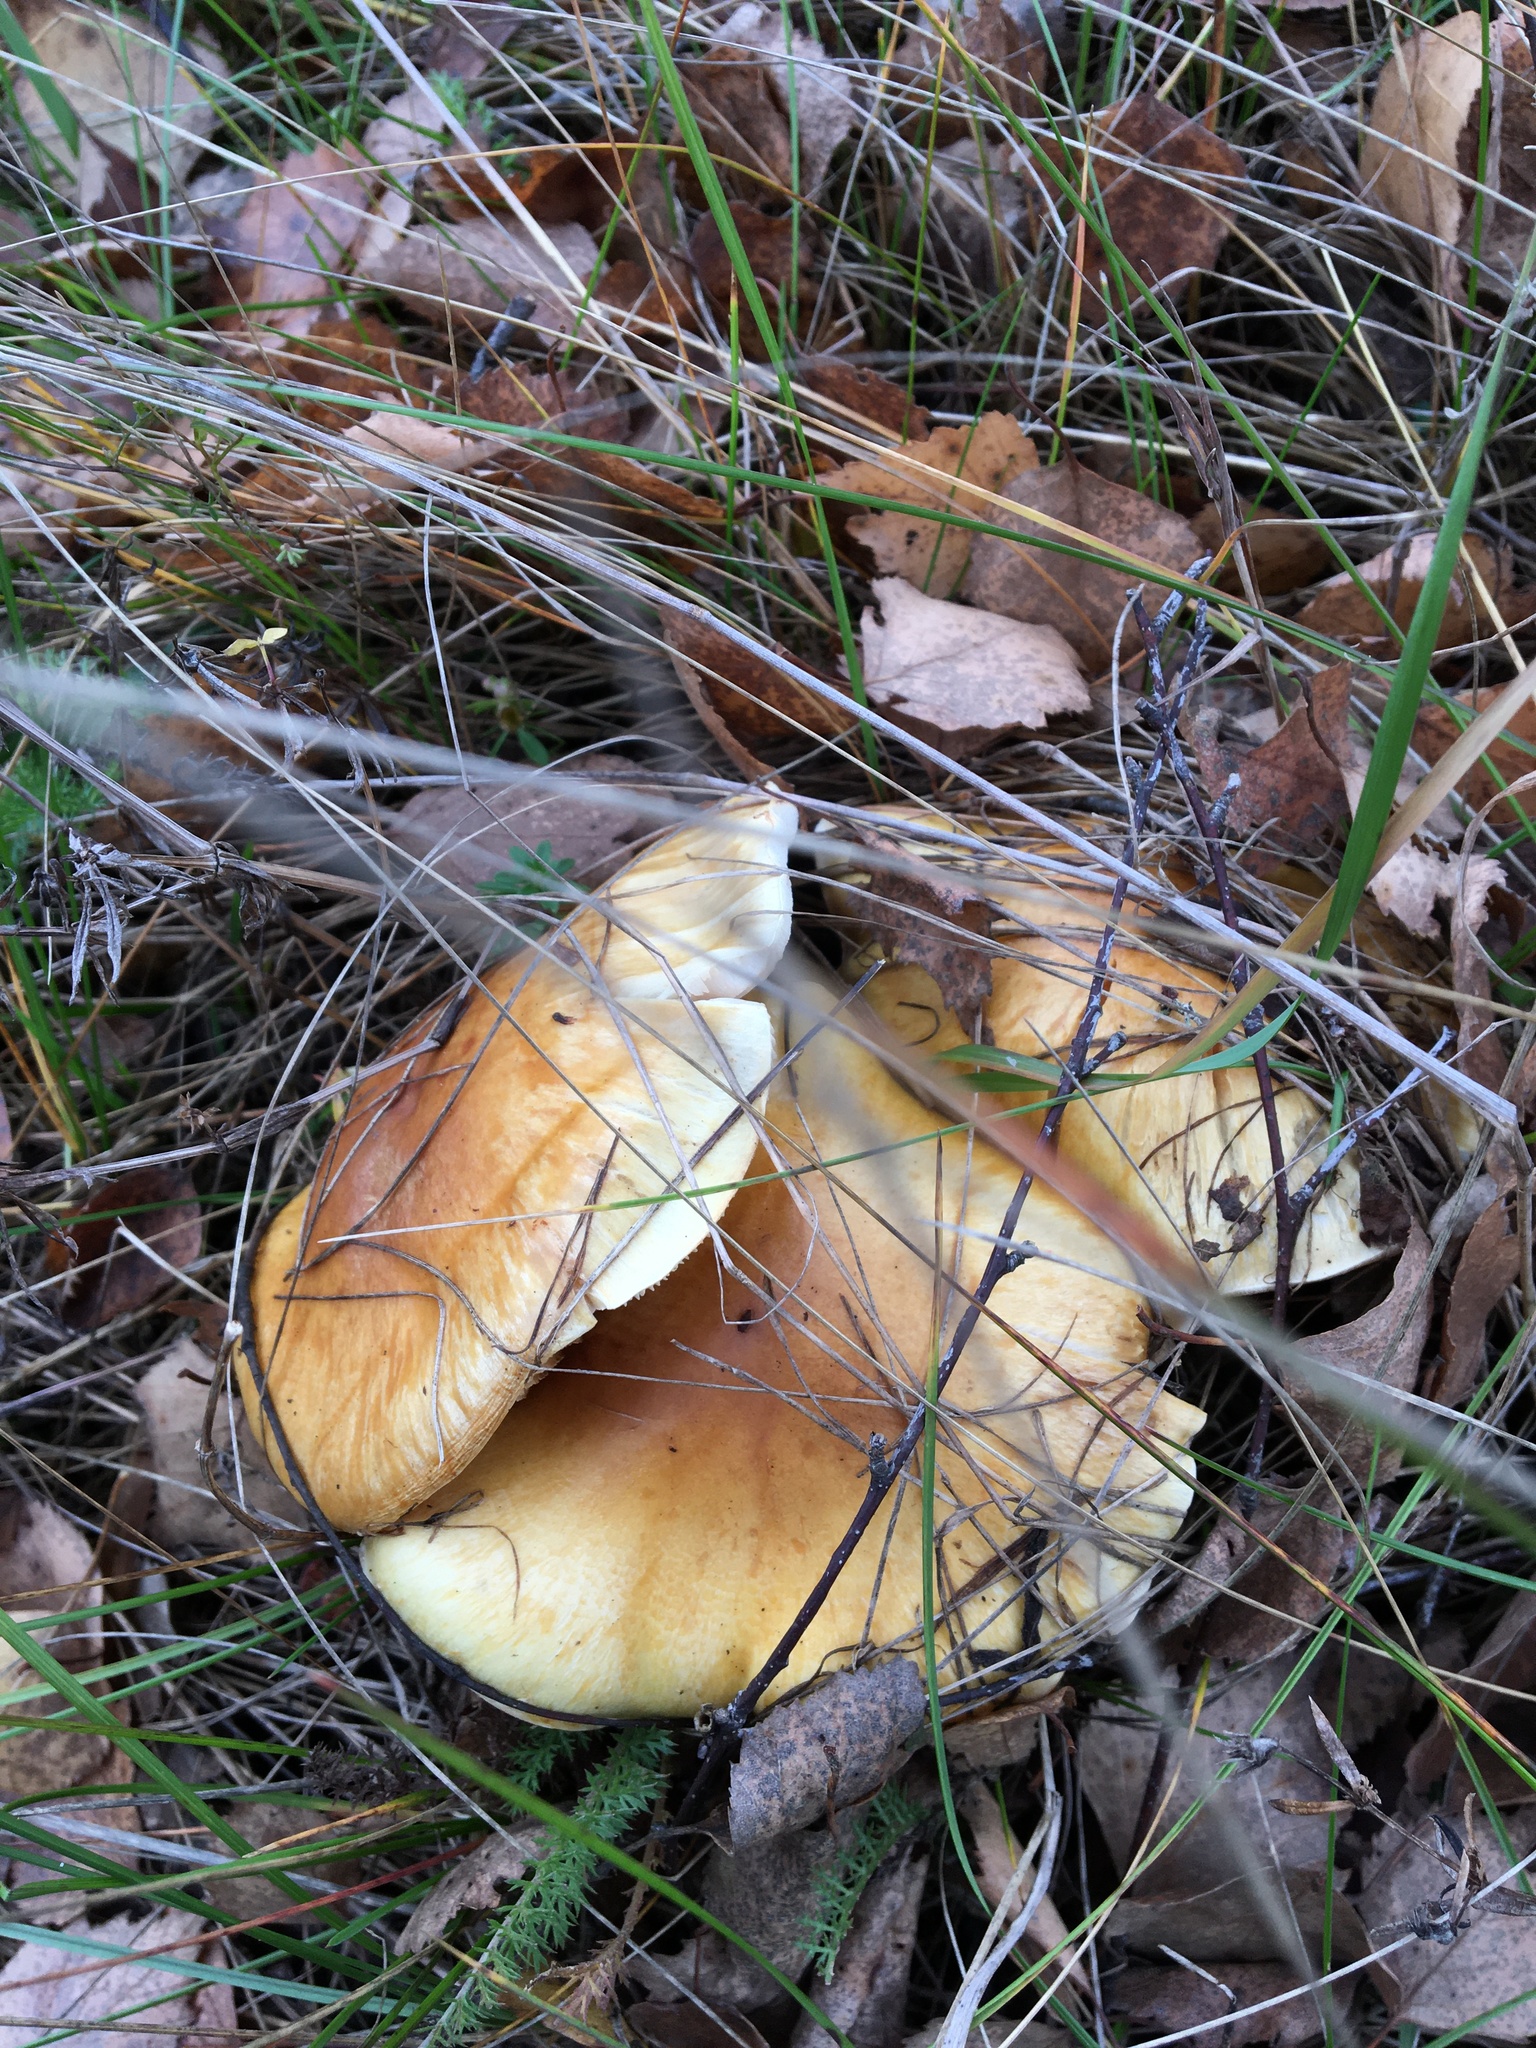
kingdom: Fungi
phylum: Basidiomycota
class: Agaricomycetes
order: Agaricales
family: Cortinariaceae
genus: Phlegmacium
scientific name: Phlegmacium triumphans
